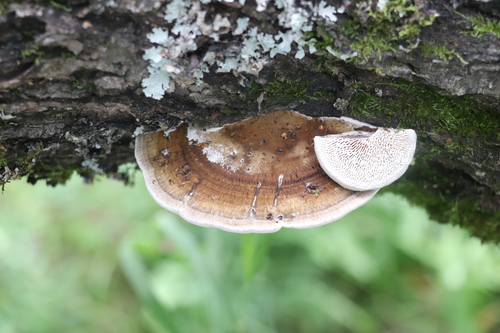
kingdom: Fungi
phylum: Basidiomycota
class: Agaricomycetes
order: Polyporales
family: Polyporaceae
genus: Daedaleopsis
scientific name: Daedaleopsis confragosa
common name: Blushing bracket
